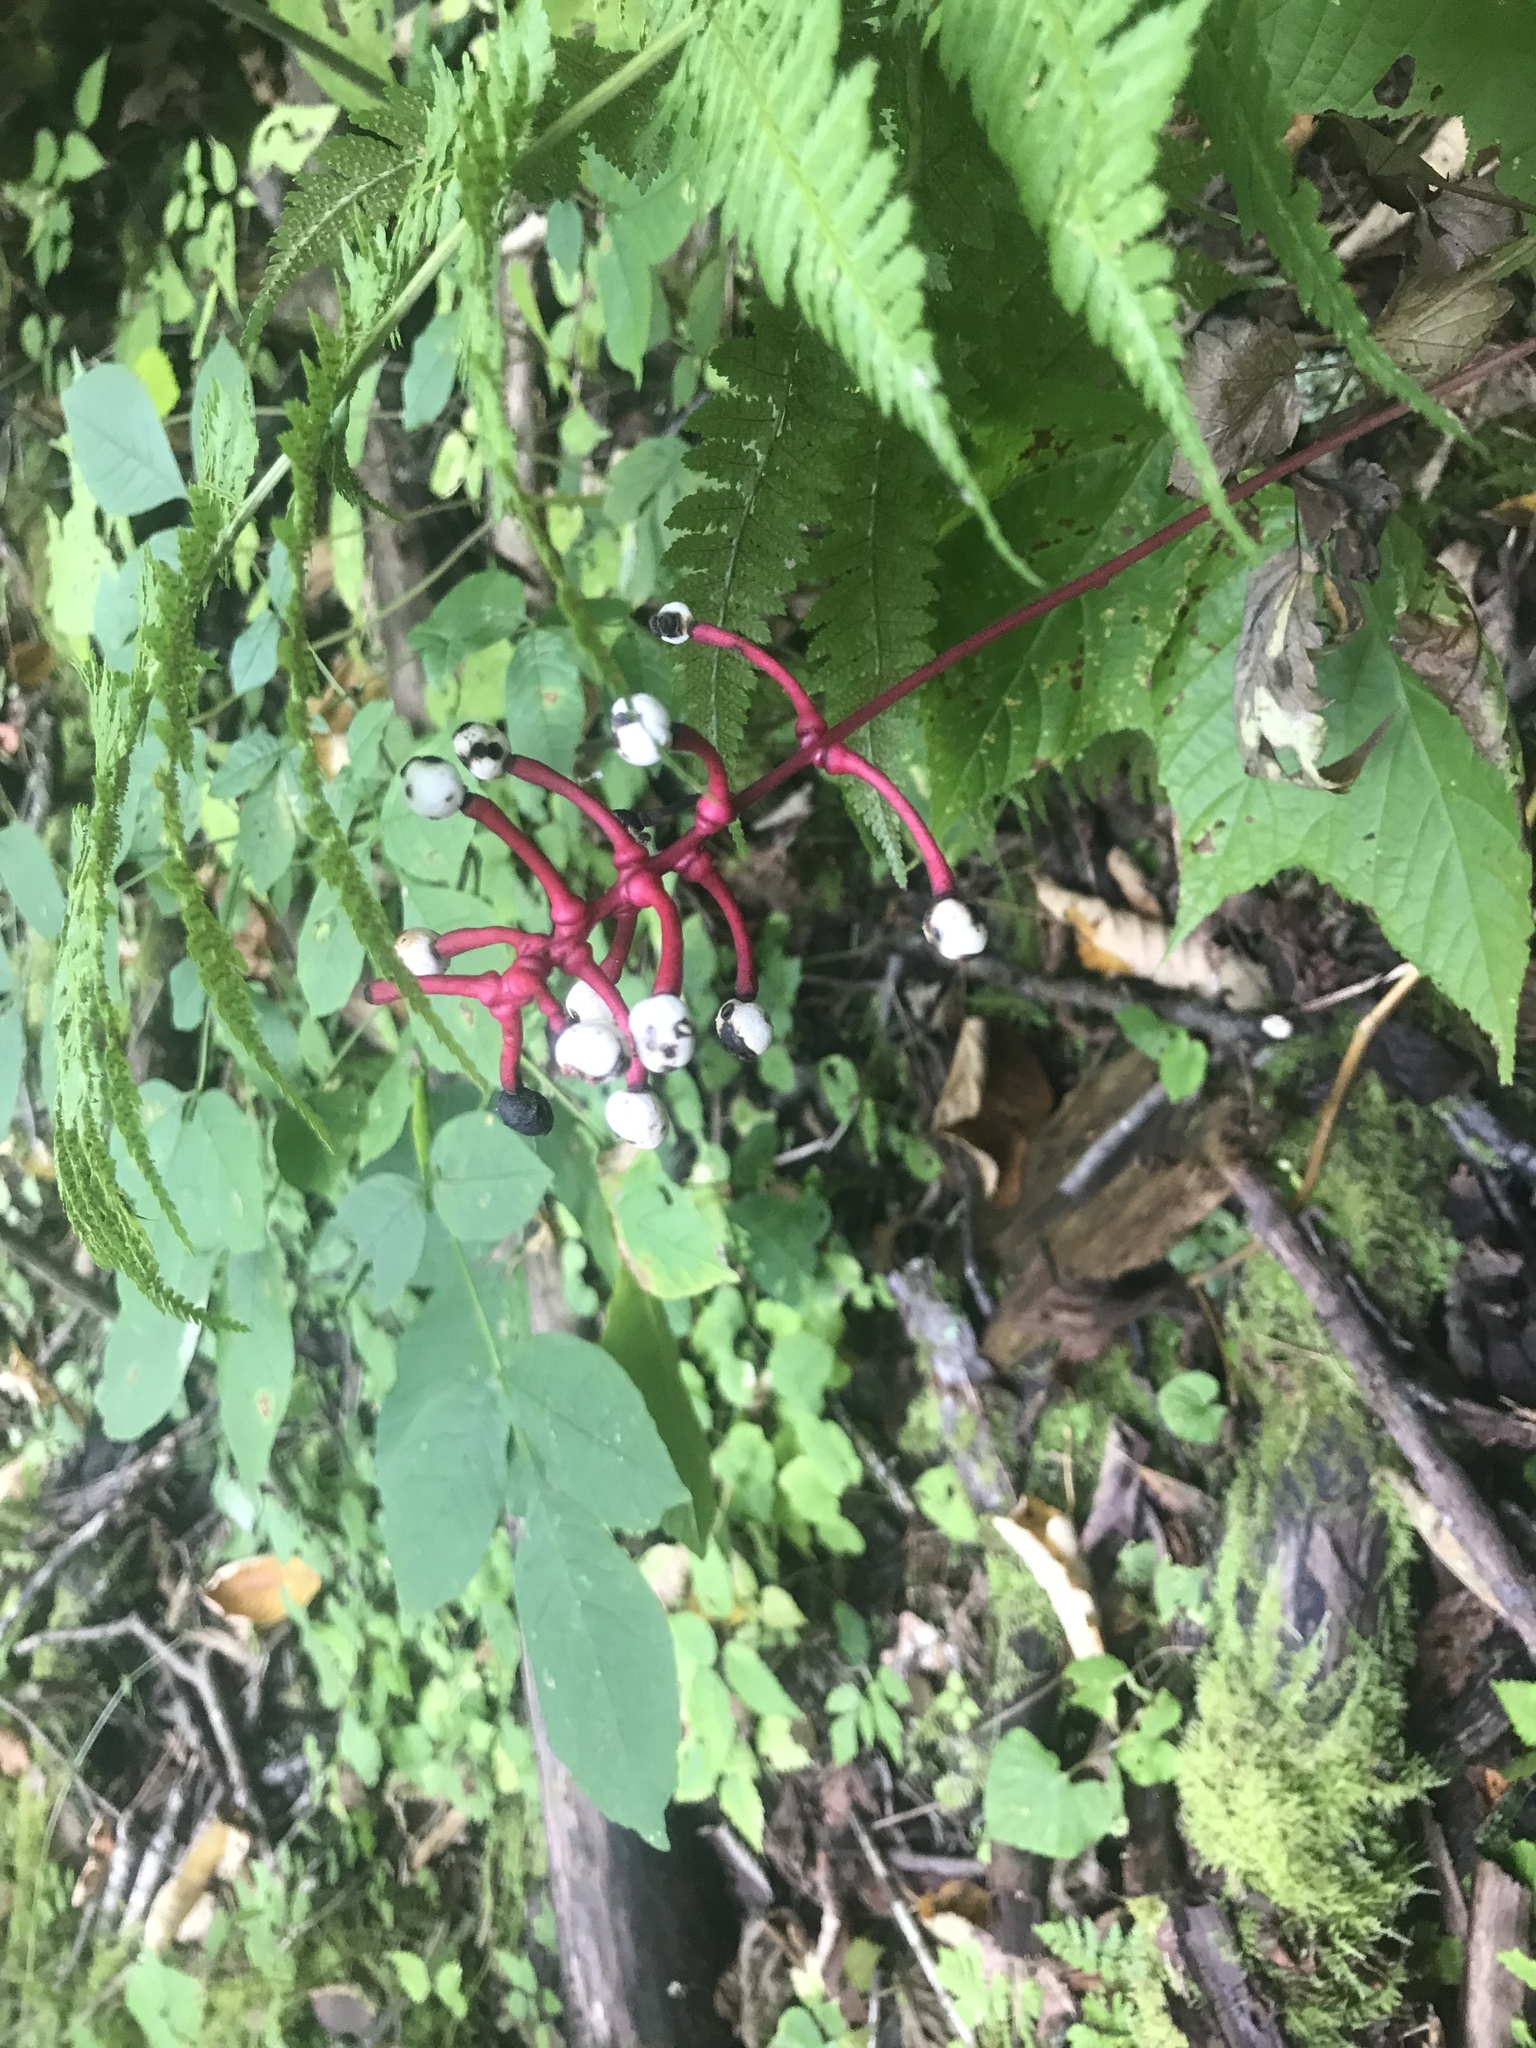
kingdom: Plantae
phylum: Tracheophyta
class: Magnoliopsida
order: Ranunculales
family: Ranunculaceae
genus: Actaea
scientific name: Actaea pachypoda
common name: Doll's-eyes
